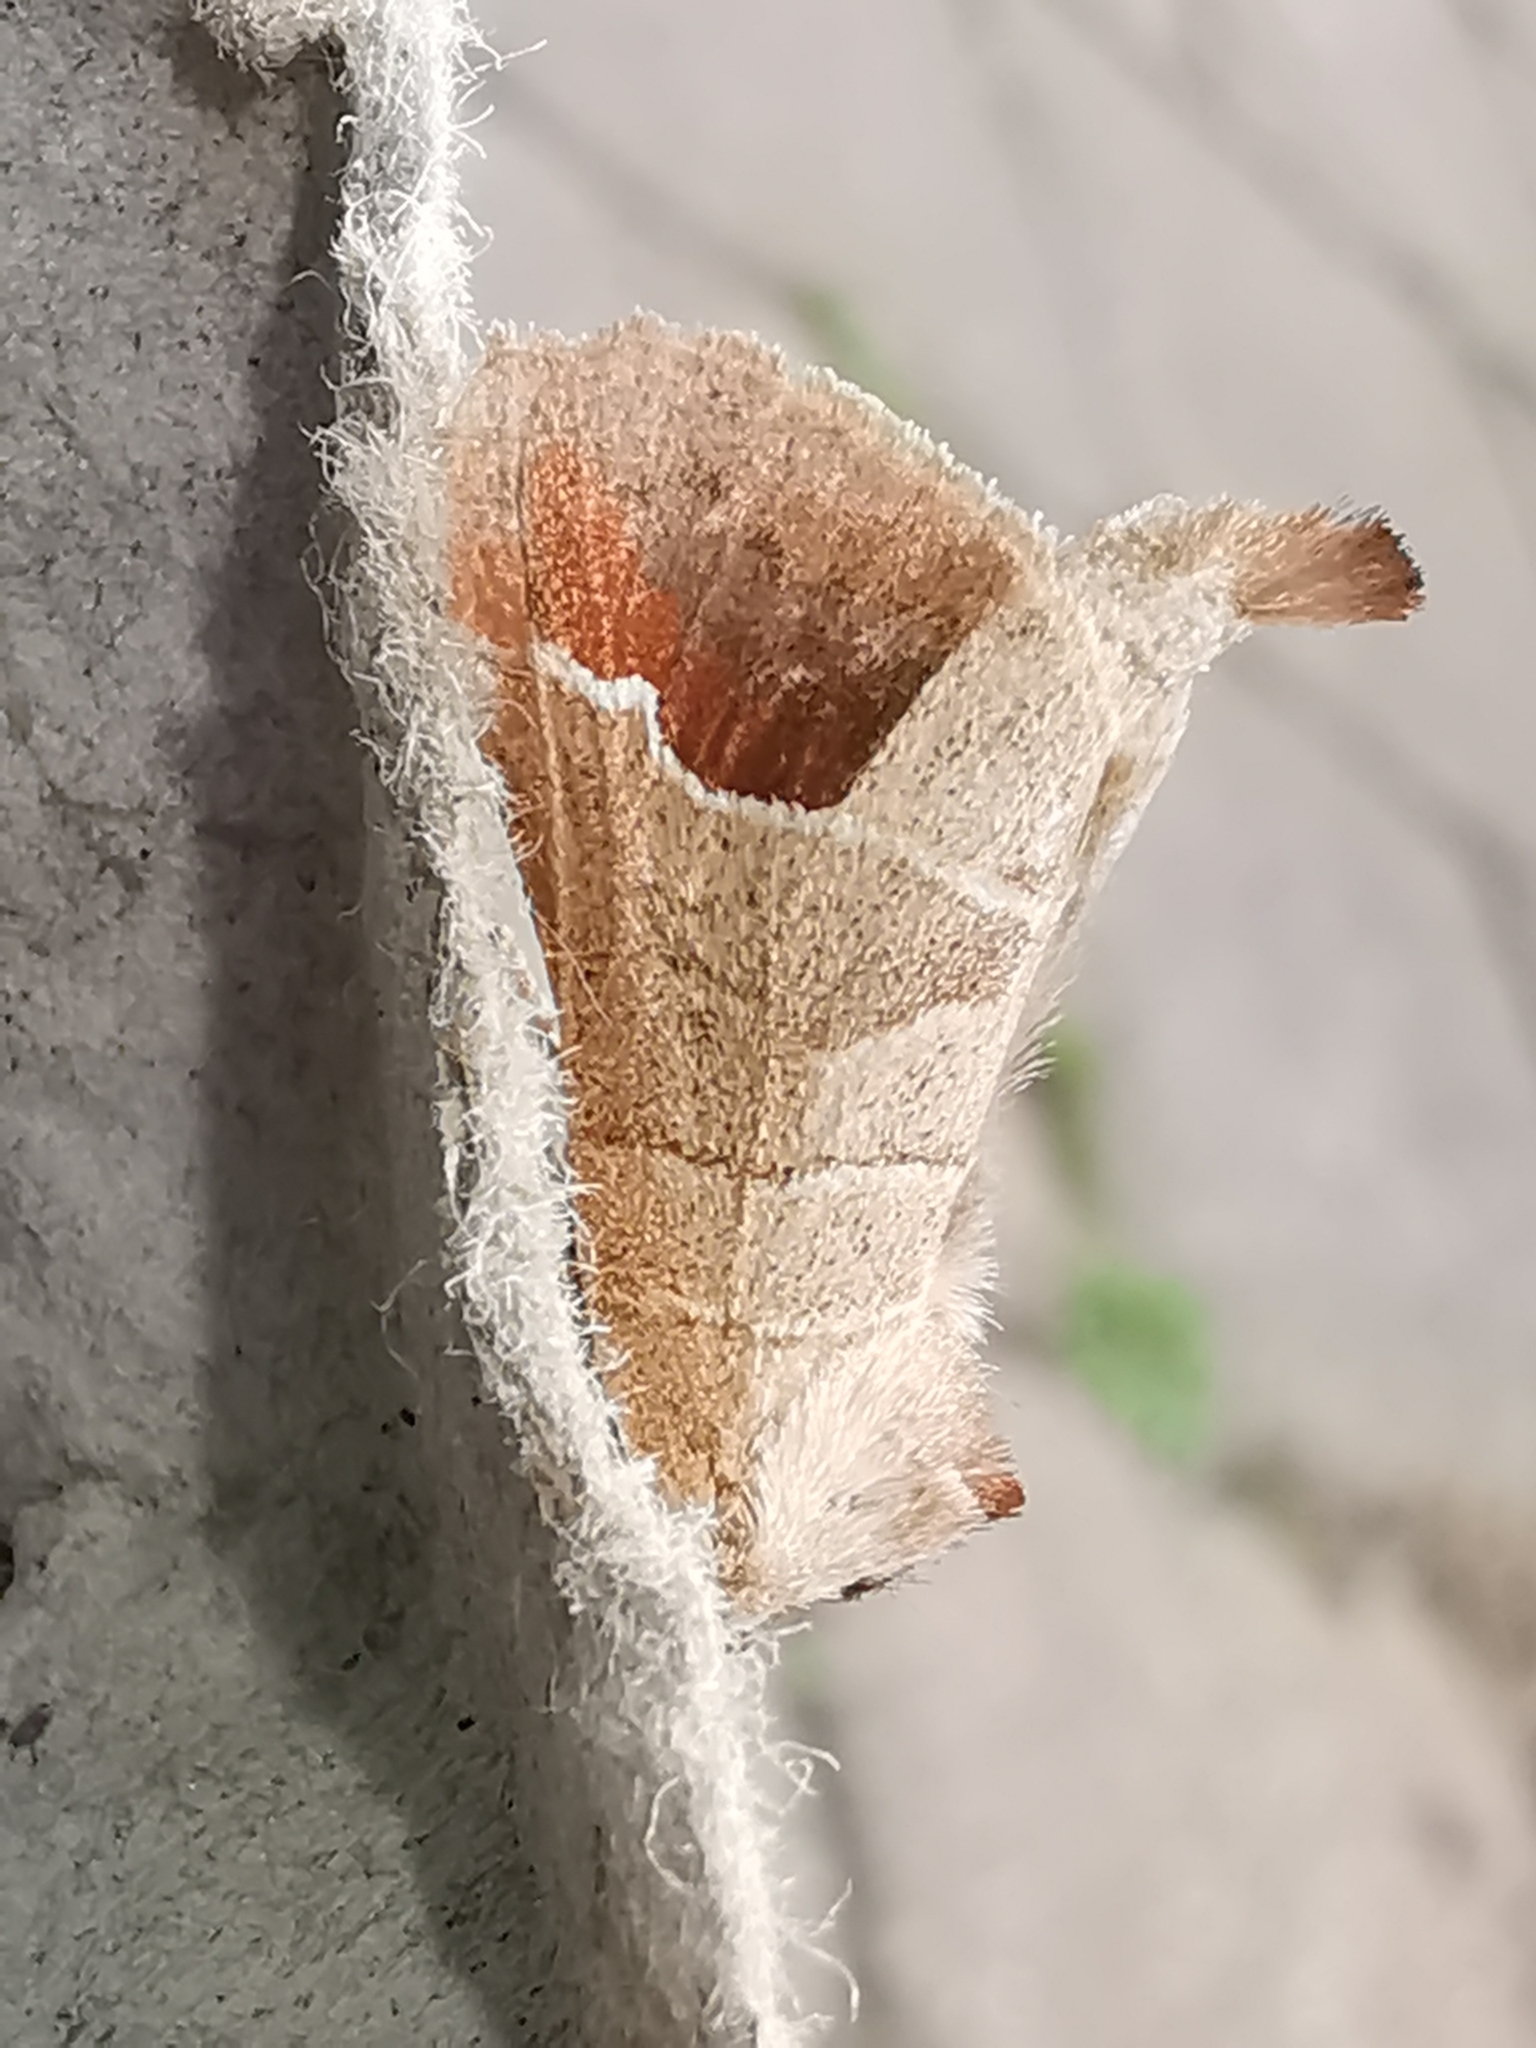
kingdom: Animalia
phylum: Arthropoda
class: Insecta
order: Lepidoptera
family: Notodontidae
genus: Clostera
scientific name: Clostera curtula
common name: Chocolate-tip
